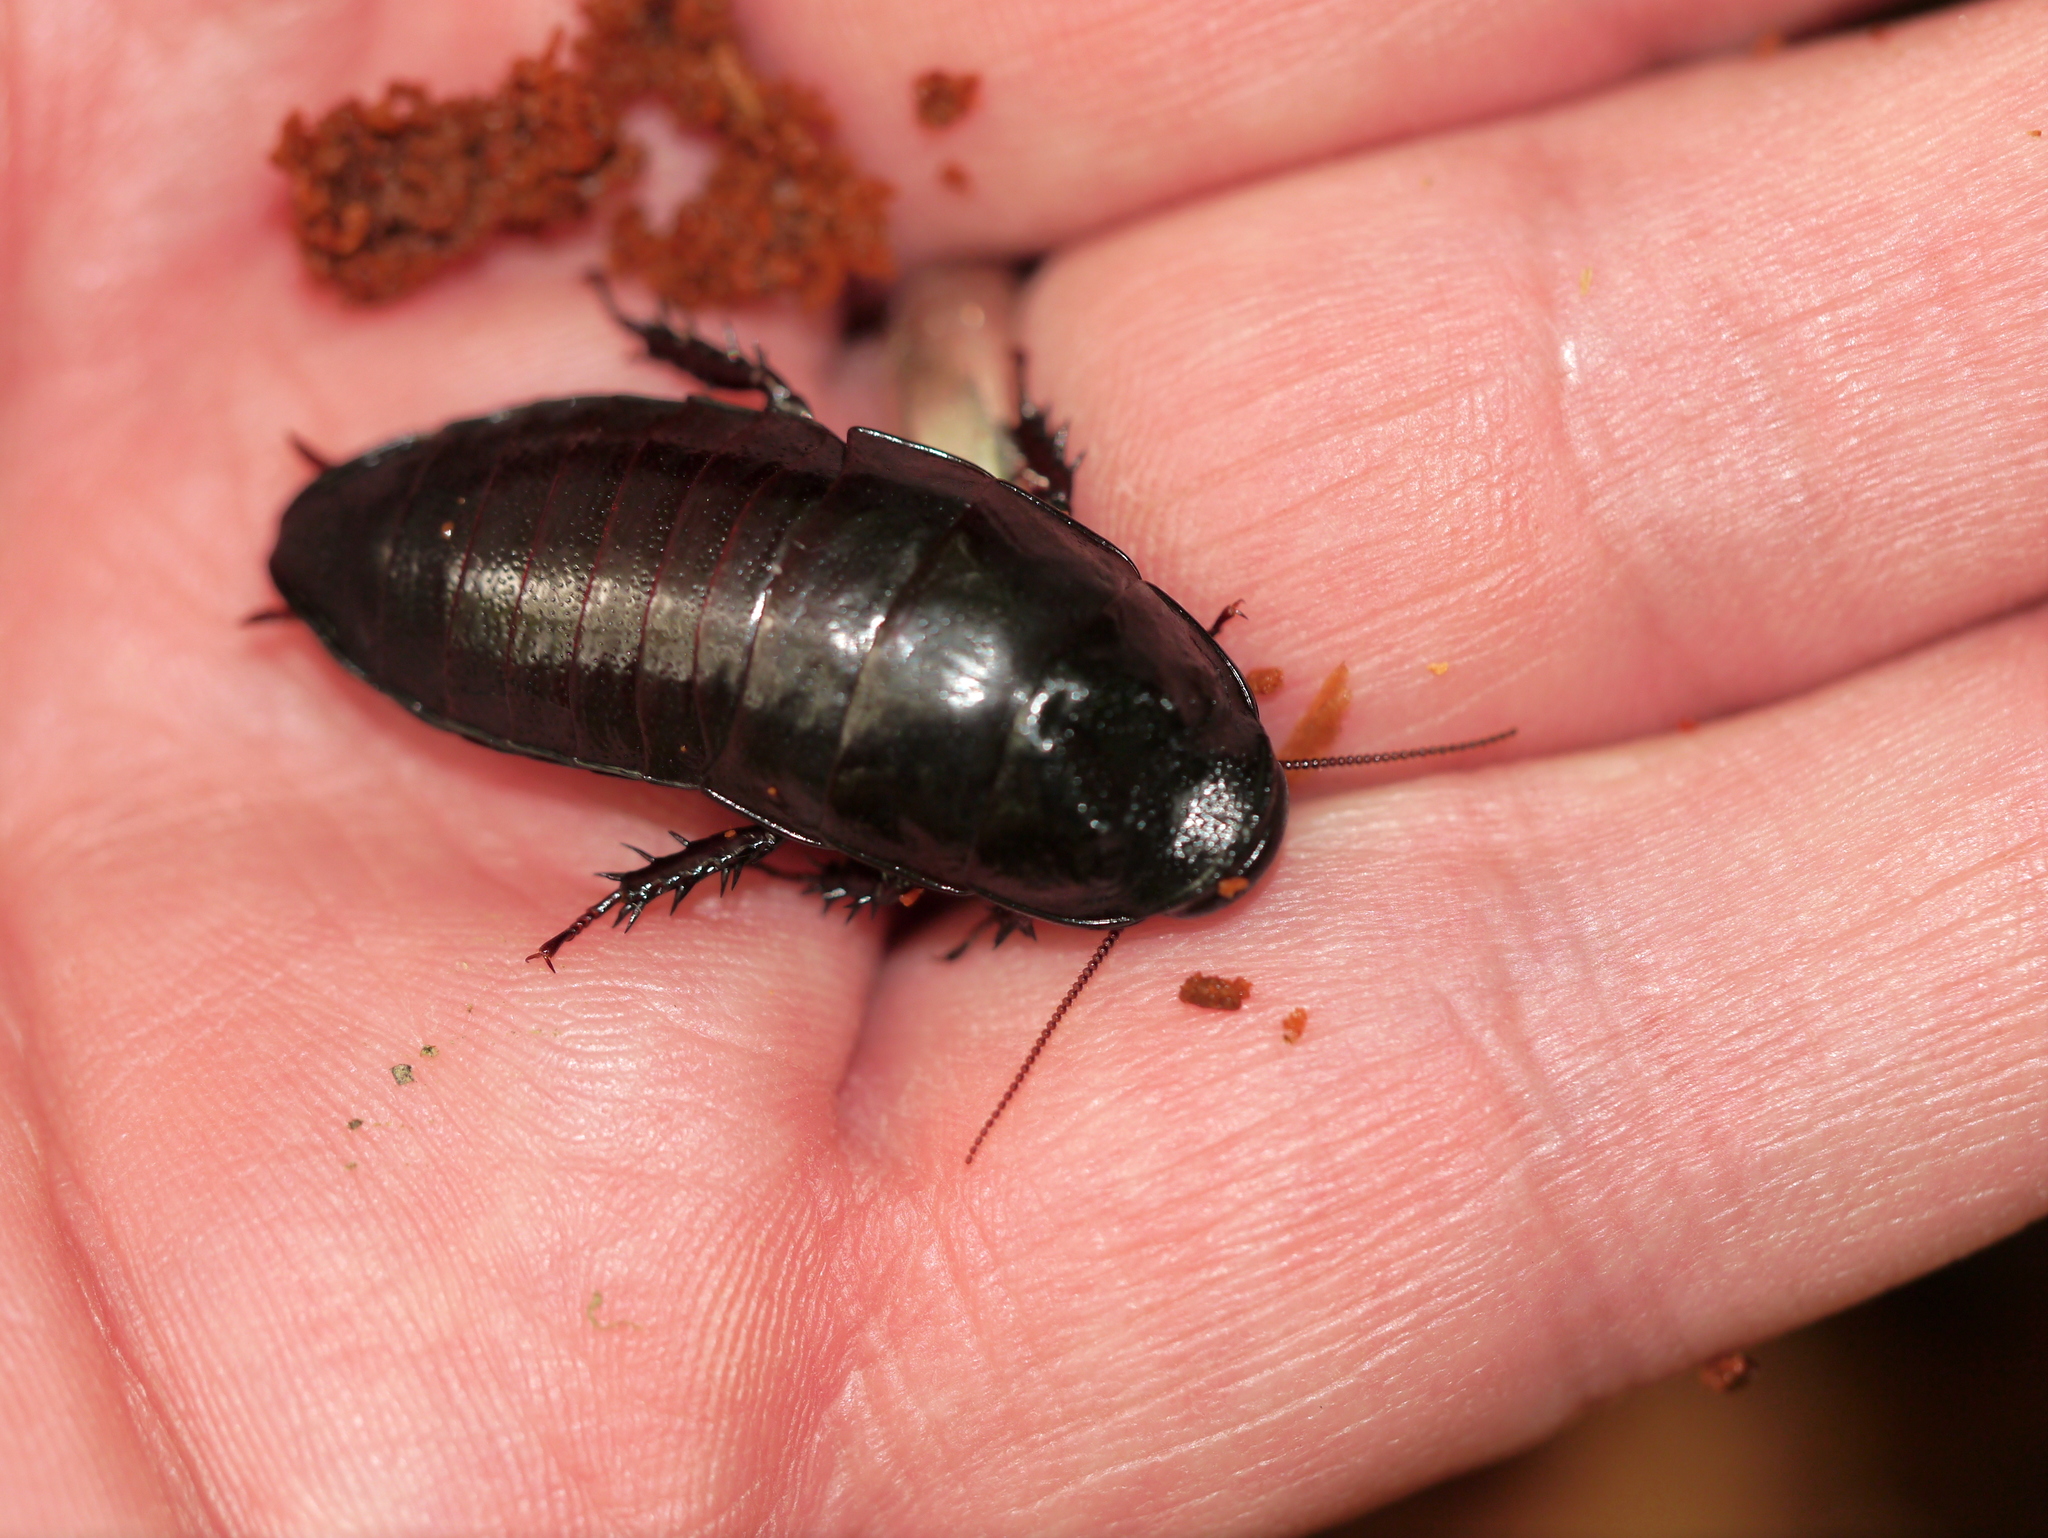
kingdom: Animalia
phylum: Arthropoda
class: Insecta
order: Blattodea
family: Cryptocercidae
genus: Cryptocercus
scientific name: Cryptocercus wrighti
